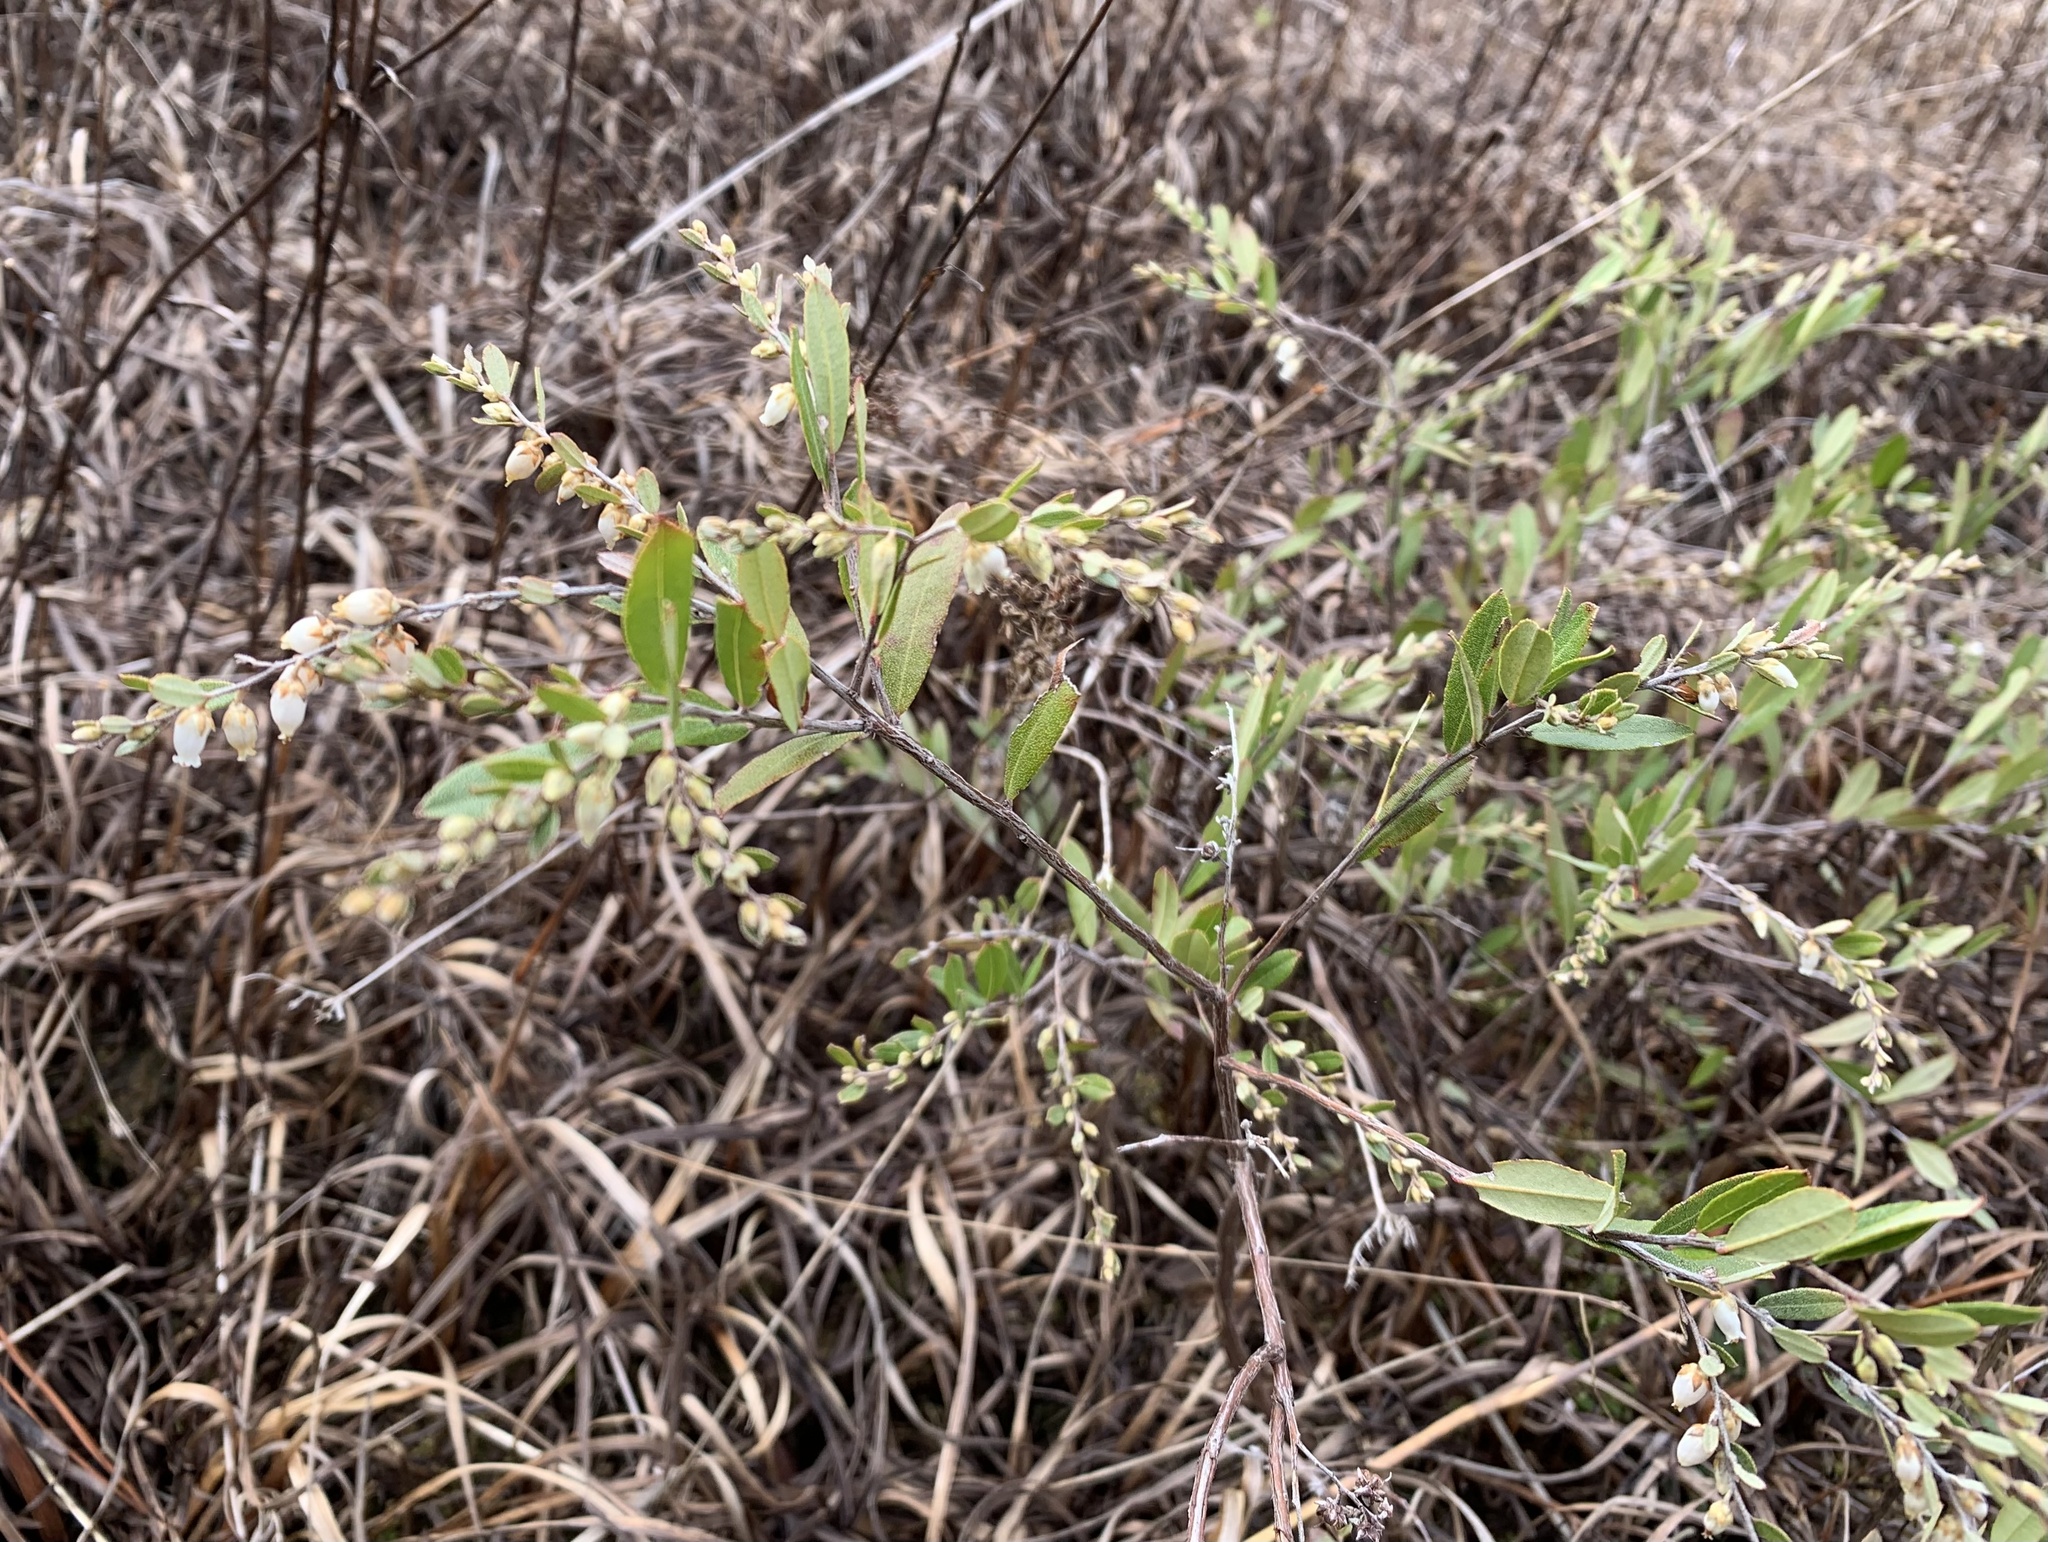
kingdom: Plantae
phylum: Tracheophyta
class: Magnoliopsida
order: Ericales
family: Ericaceae
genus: Chamaedaphne
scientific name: Chamaedaphne calyculata
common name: Leatherleaf
